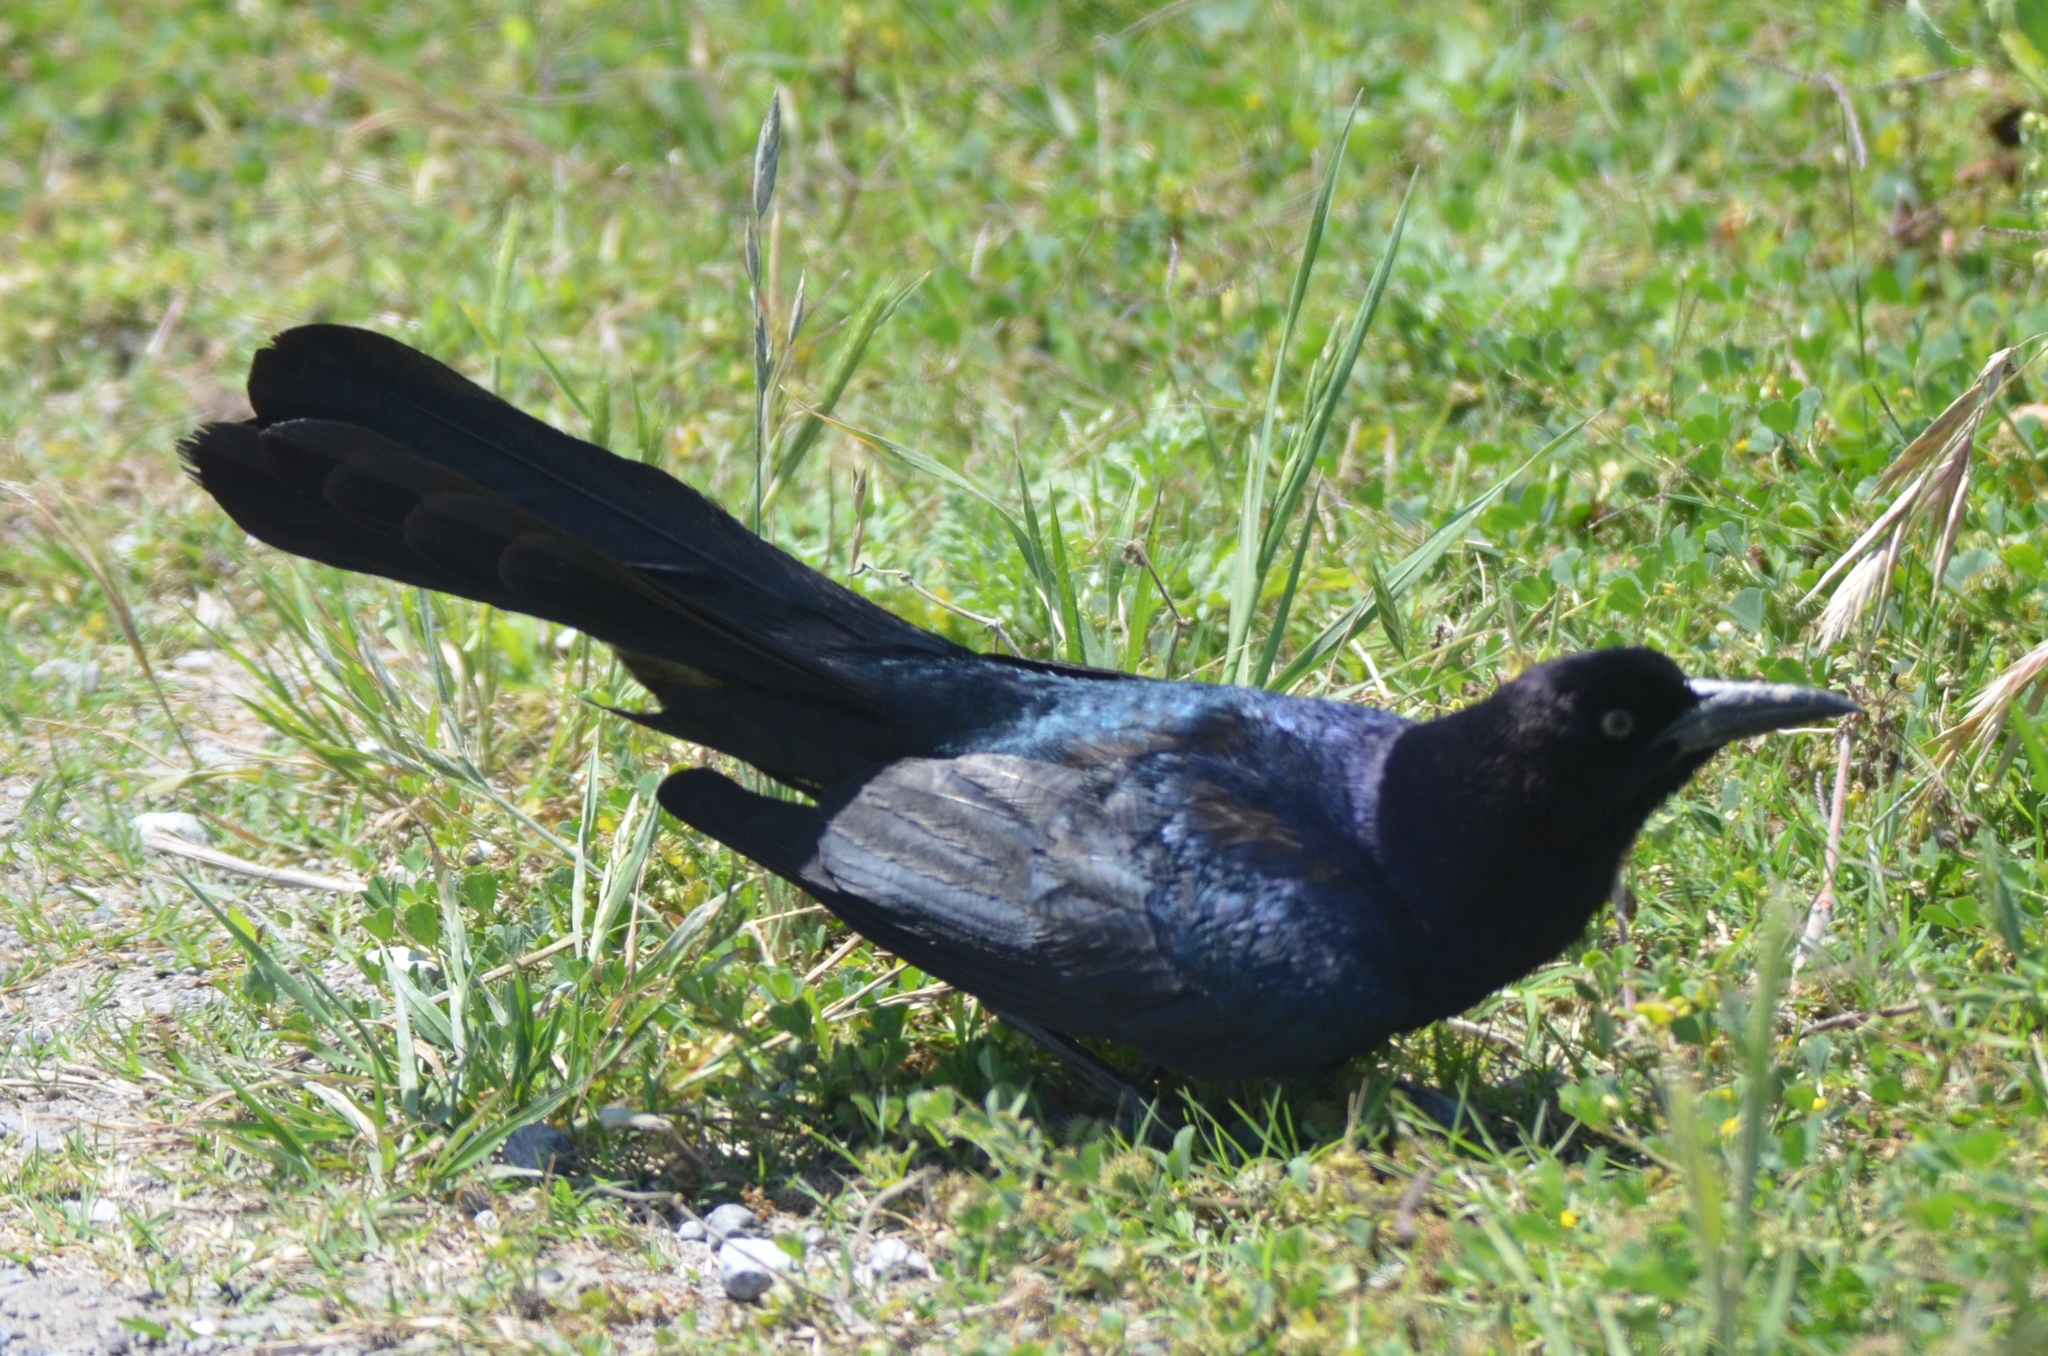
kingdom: Animalia
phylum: Chordata
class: Aves
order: Passeriformes
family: Icteridae
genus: Quiscalus
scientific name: Quiscalus major
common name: Boat-tailed grackle
